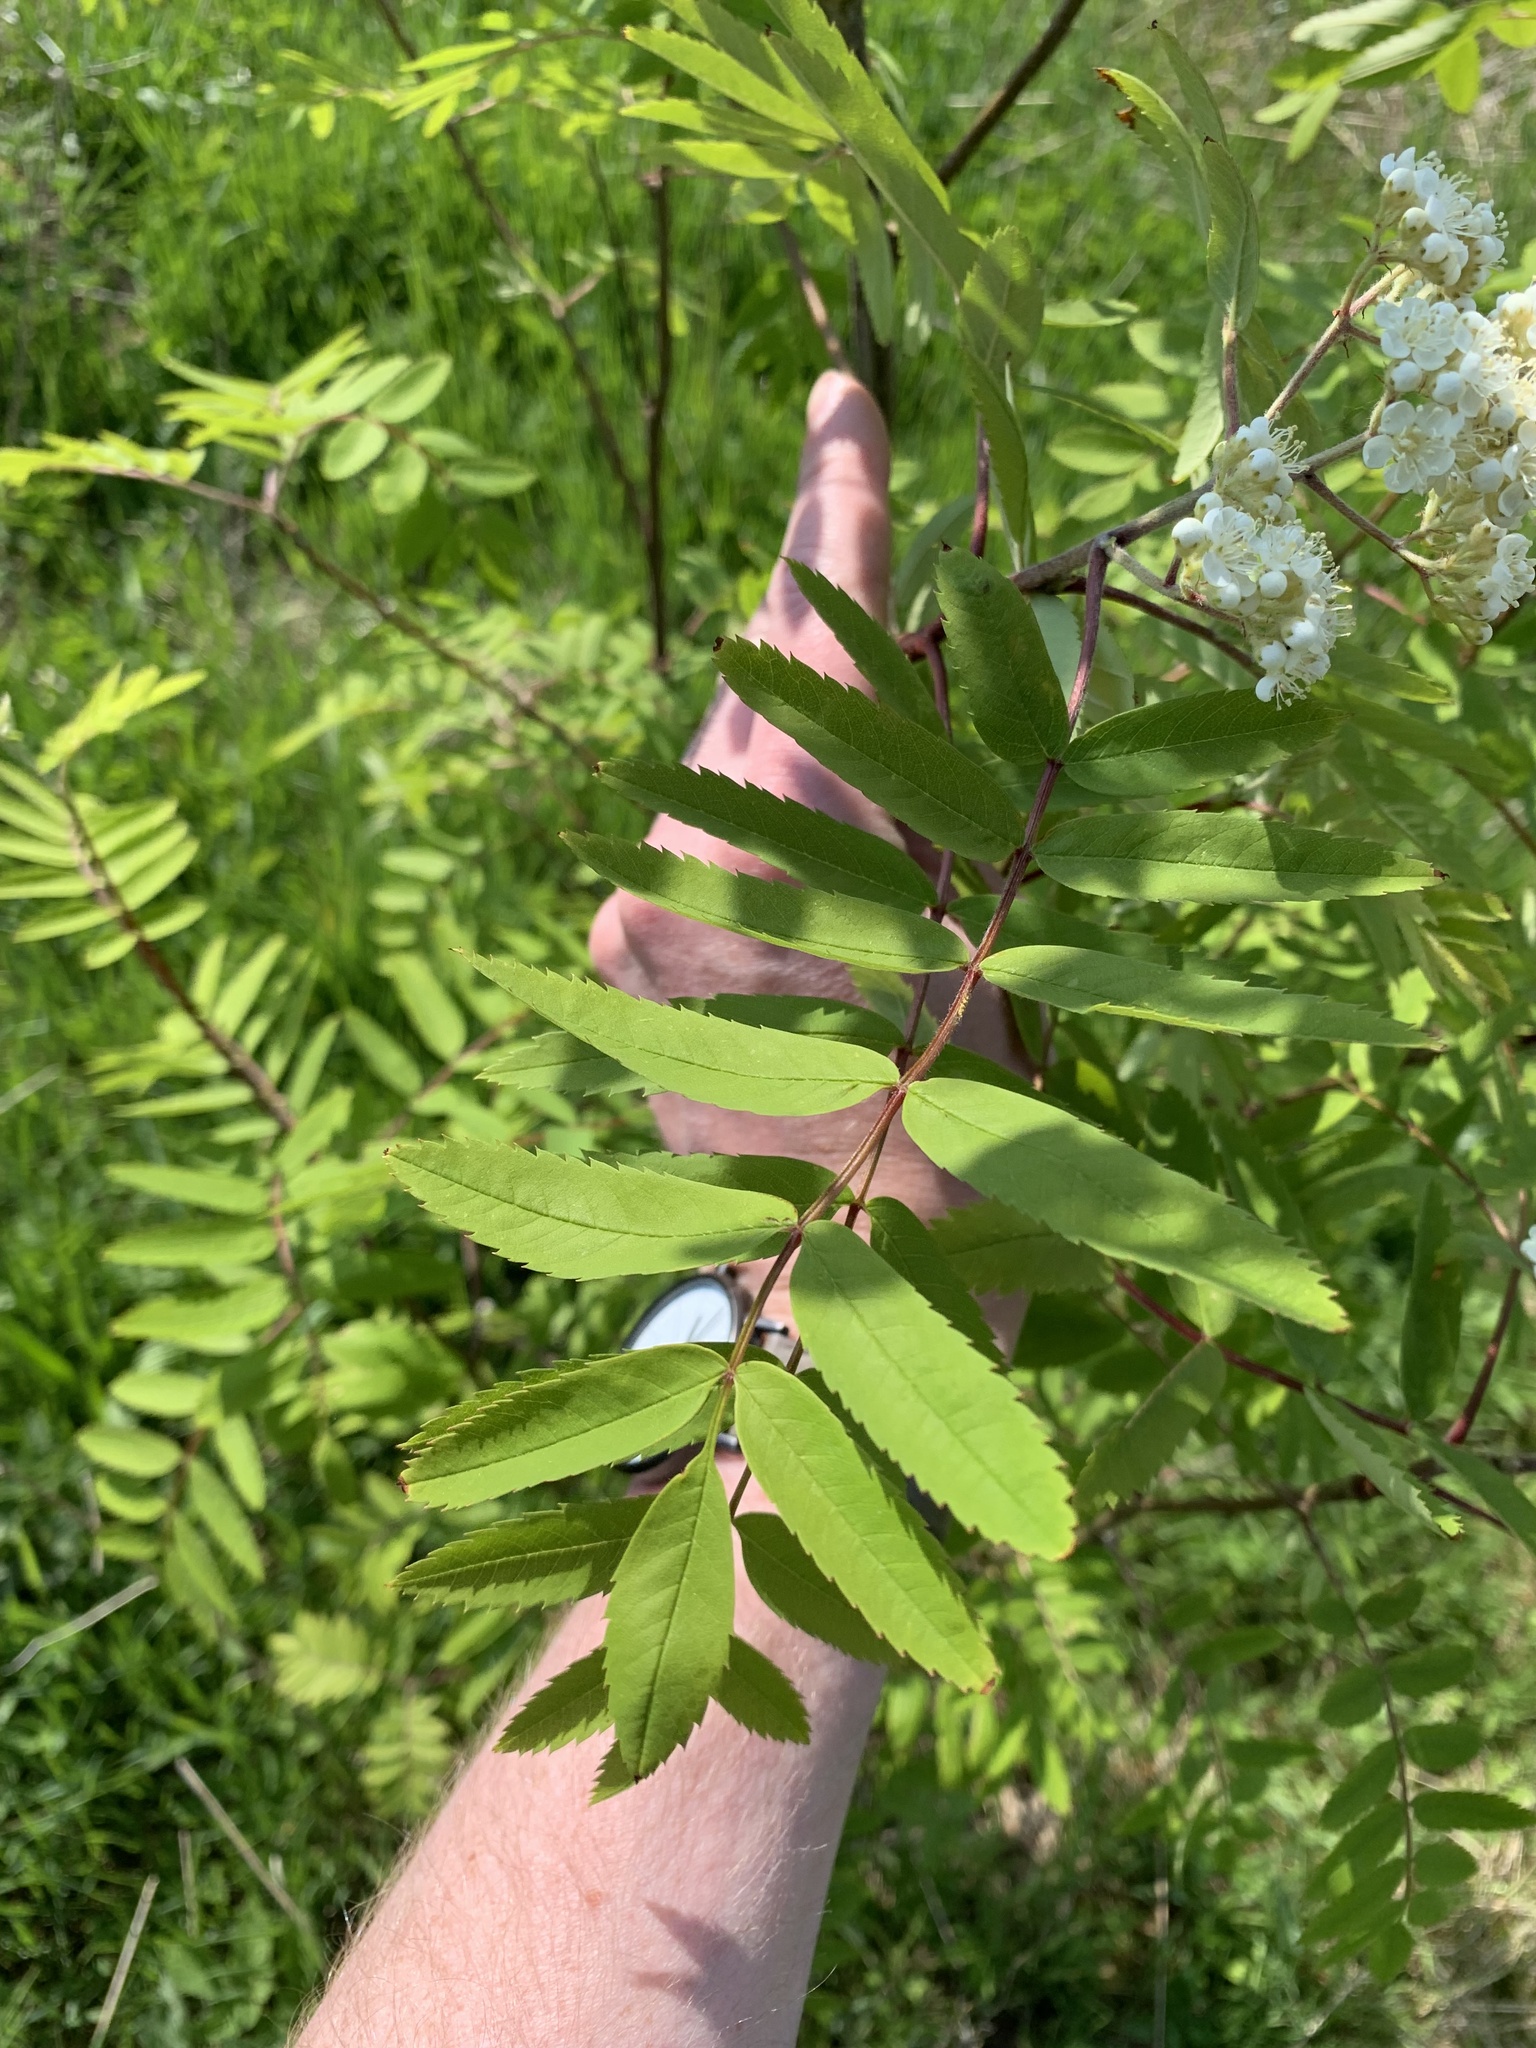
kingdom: Plantae
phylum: Tracheophyta
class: Magnoliopsida
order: Rosales
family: Rosaceae
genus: Sorbus
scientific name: Sorbus aucuparia
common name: Rowan
